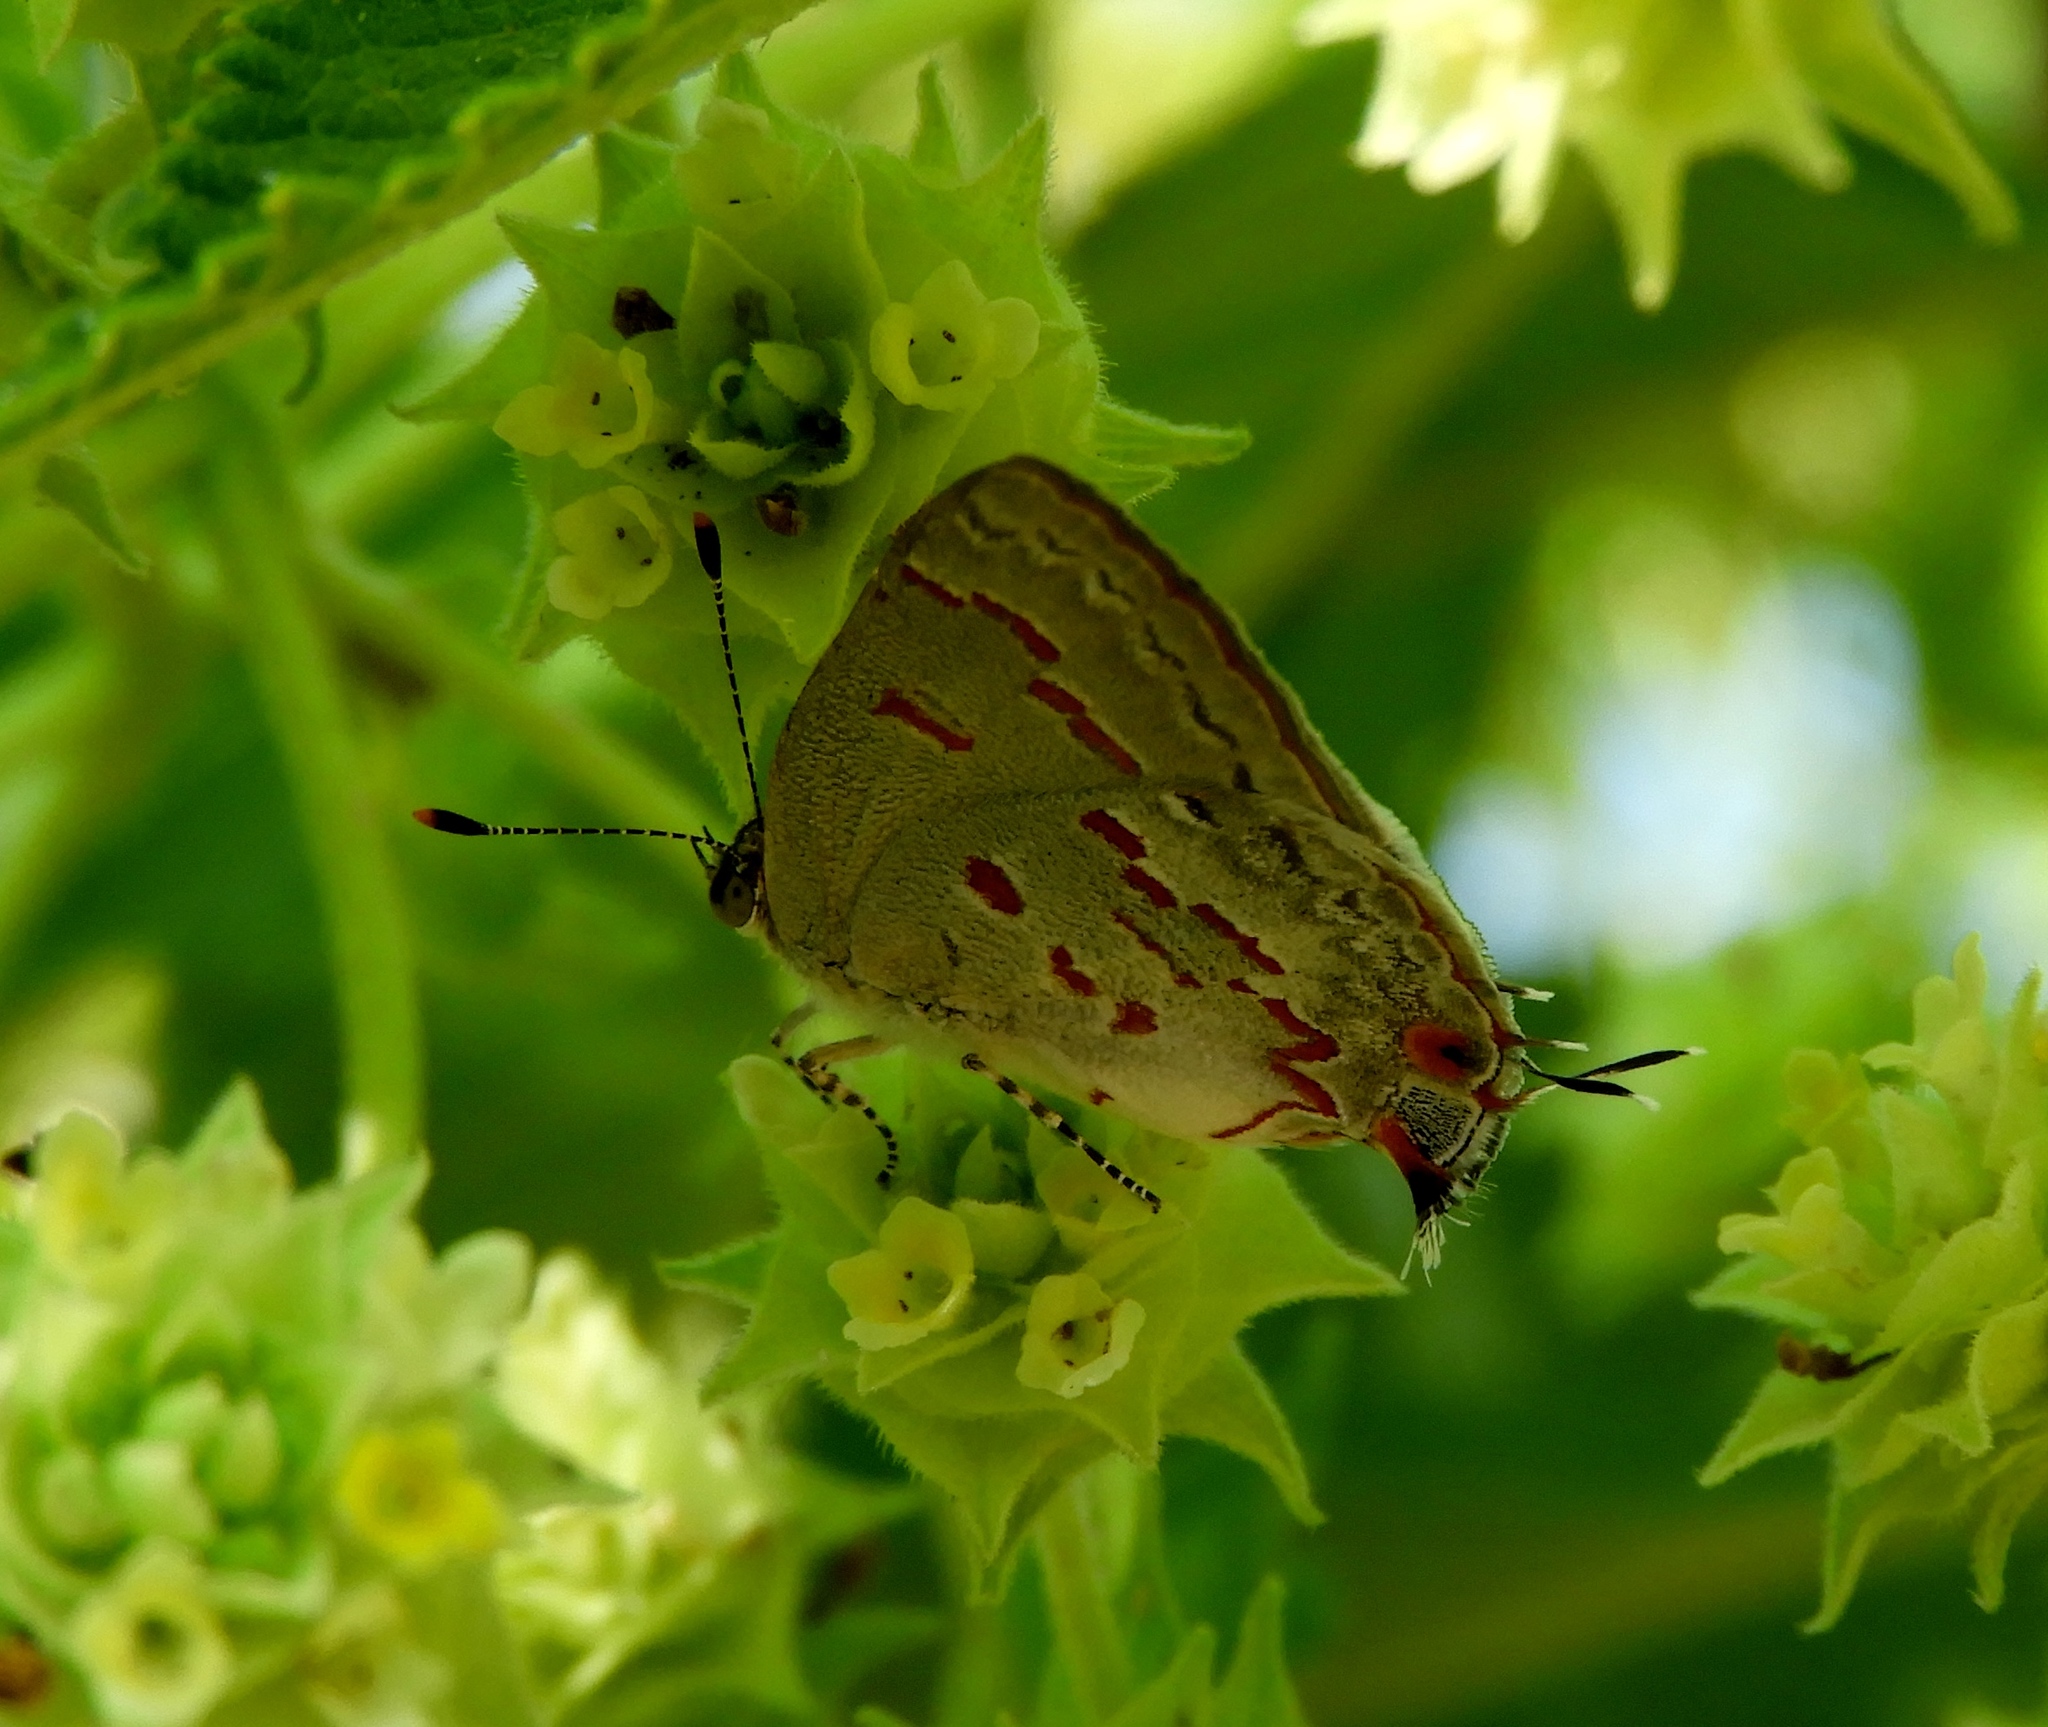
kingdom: Animalia
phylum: Arthropoda
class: Insecta
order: Lepidoptera
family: Lycaenidae
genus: Ministrymon
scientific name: Ministrymon
